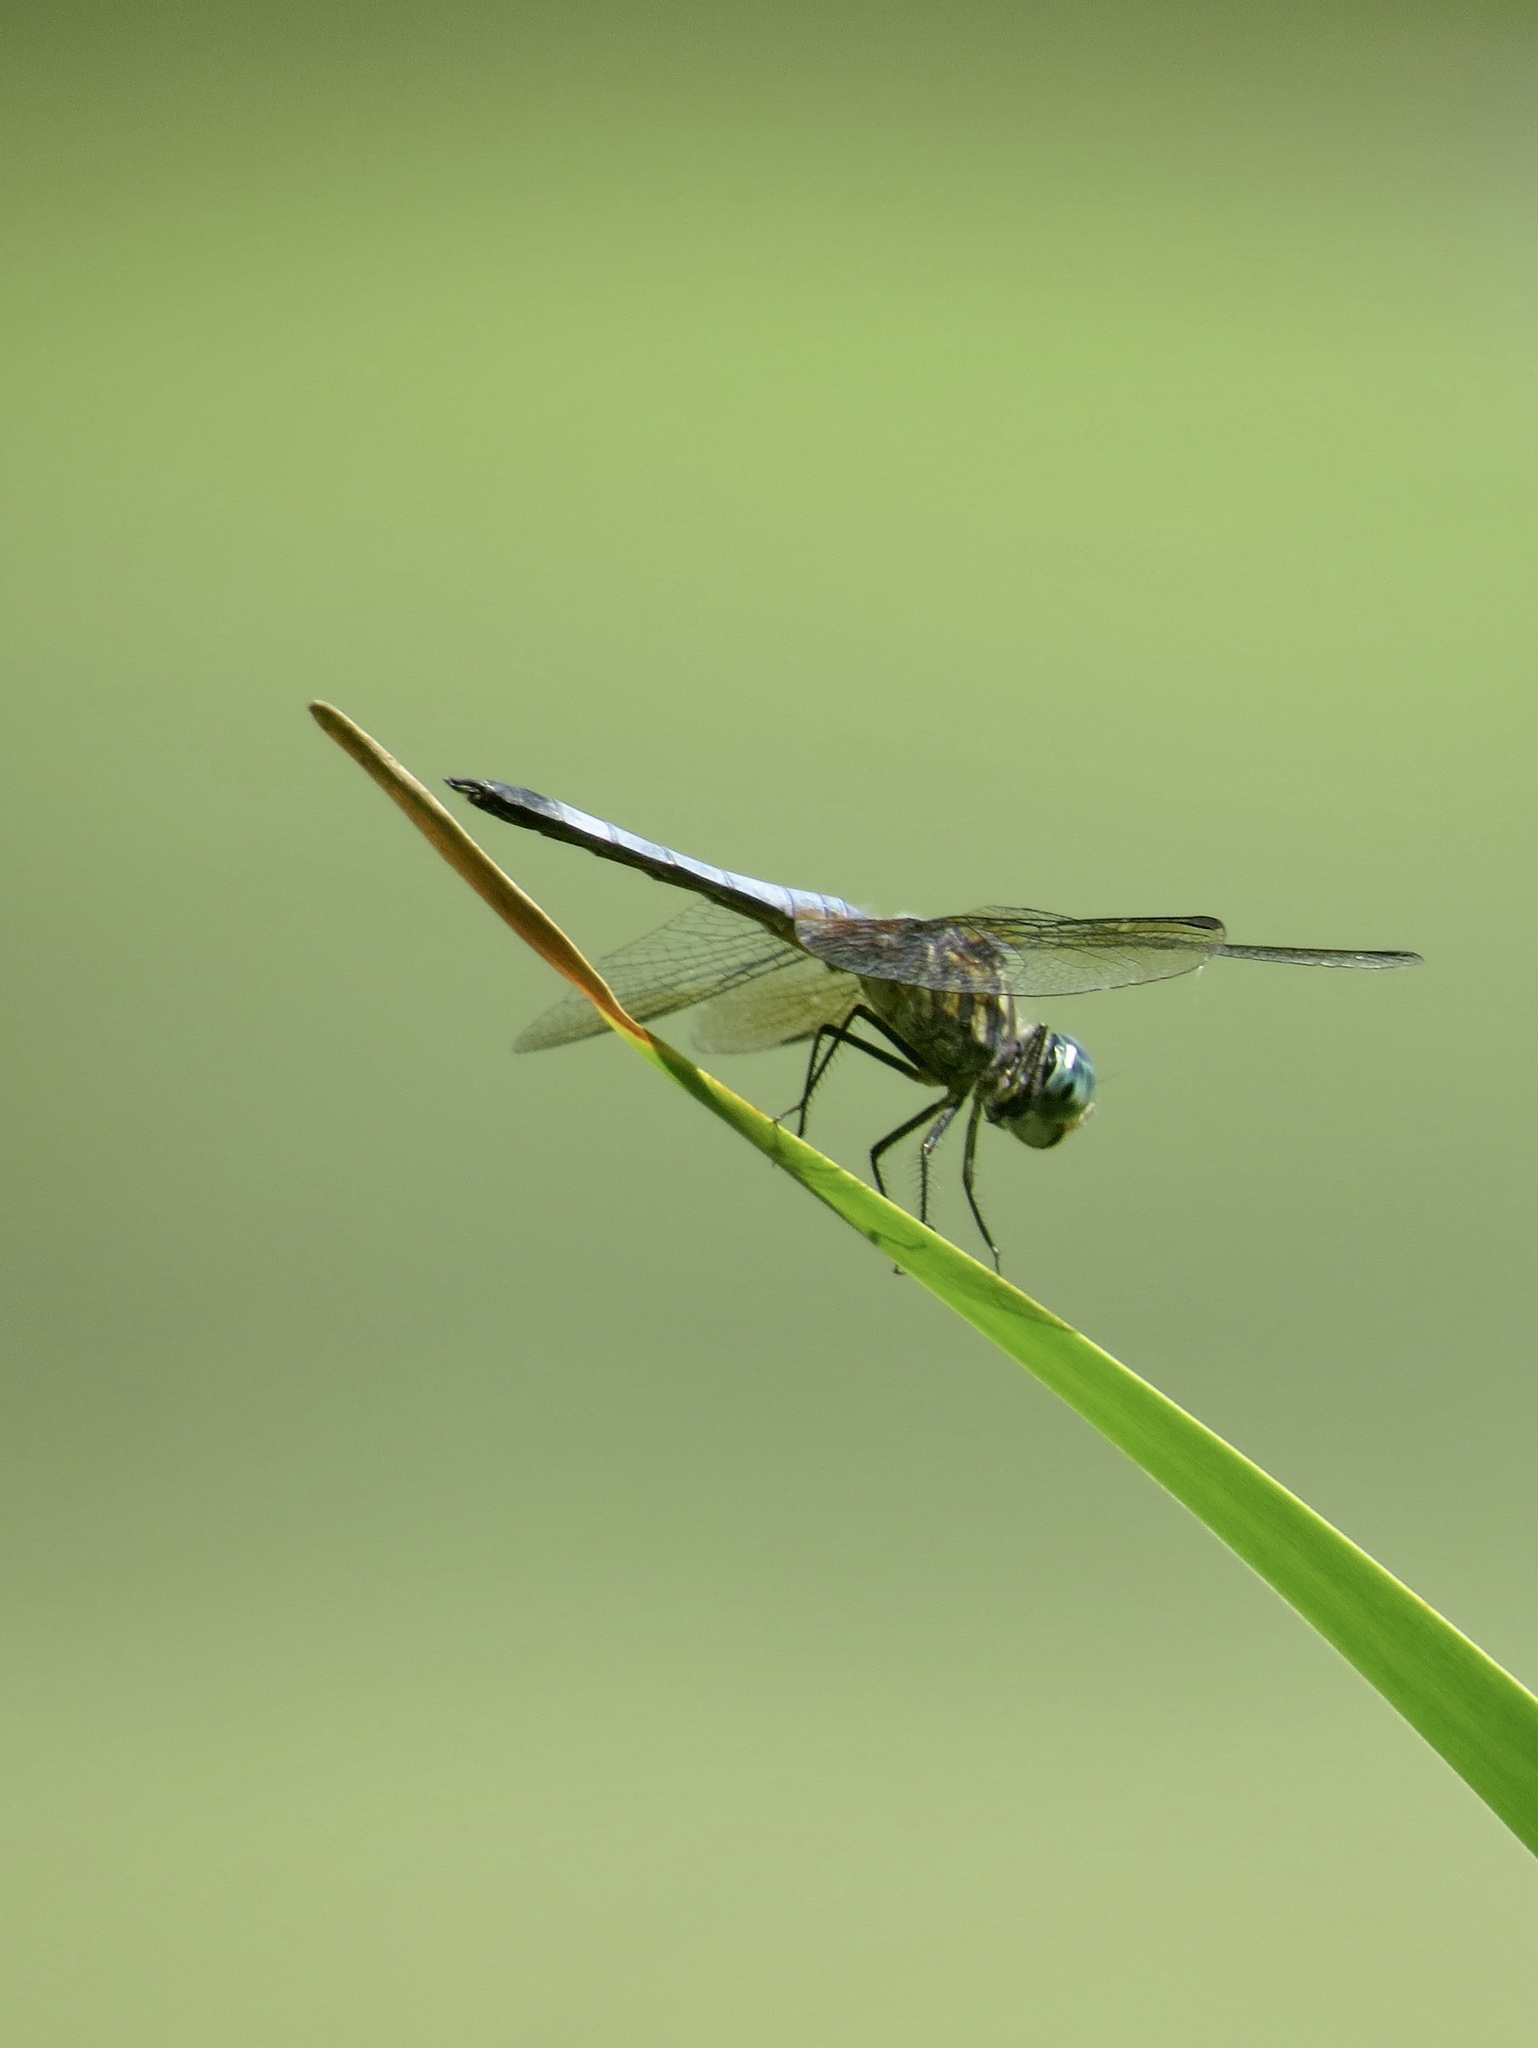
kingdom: Animalia
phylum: Arthropoda
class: Insecta
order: Odonata
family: Libellulidae
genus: Pachydiplax
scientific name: Pachydiplax longipennis
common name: Blue dasher
